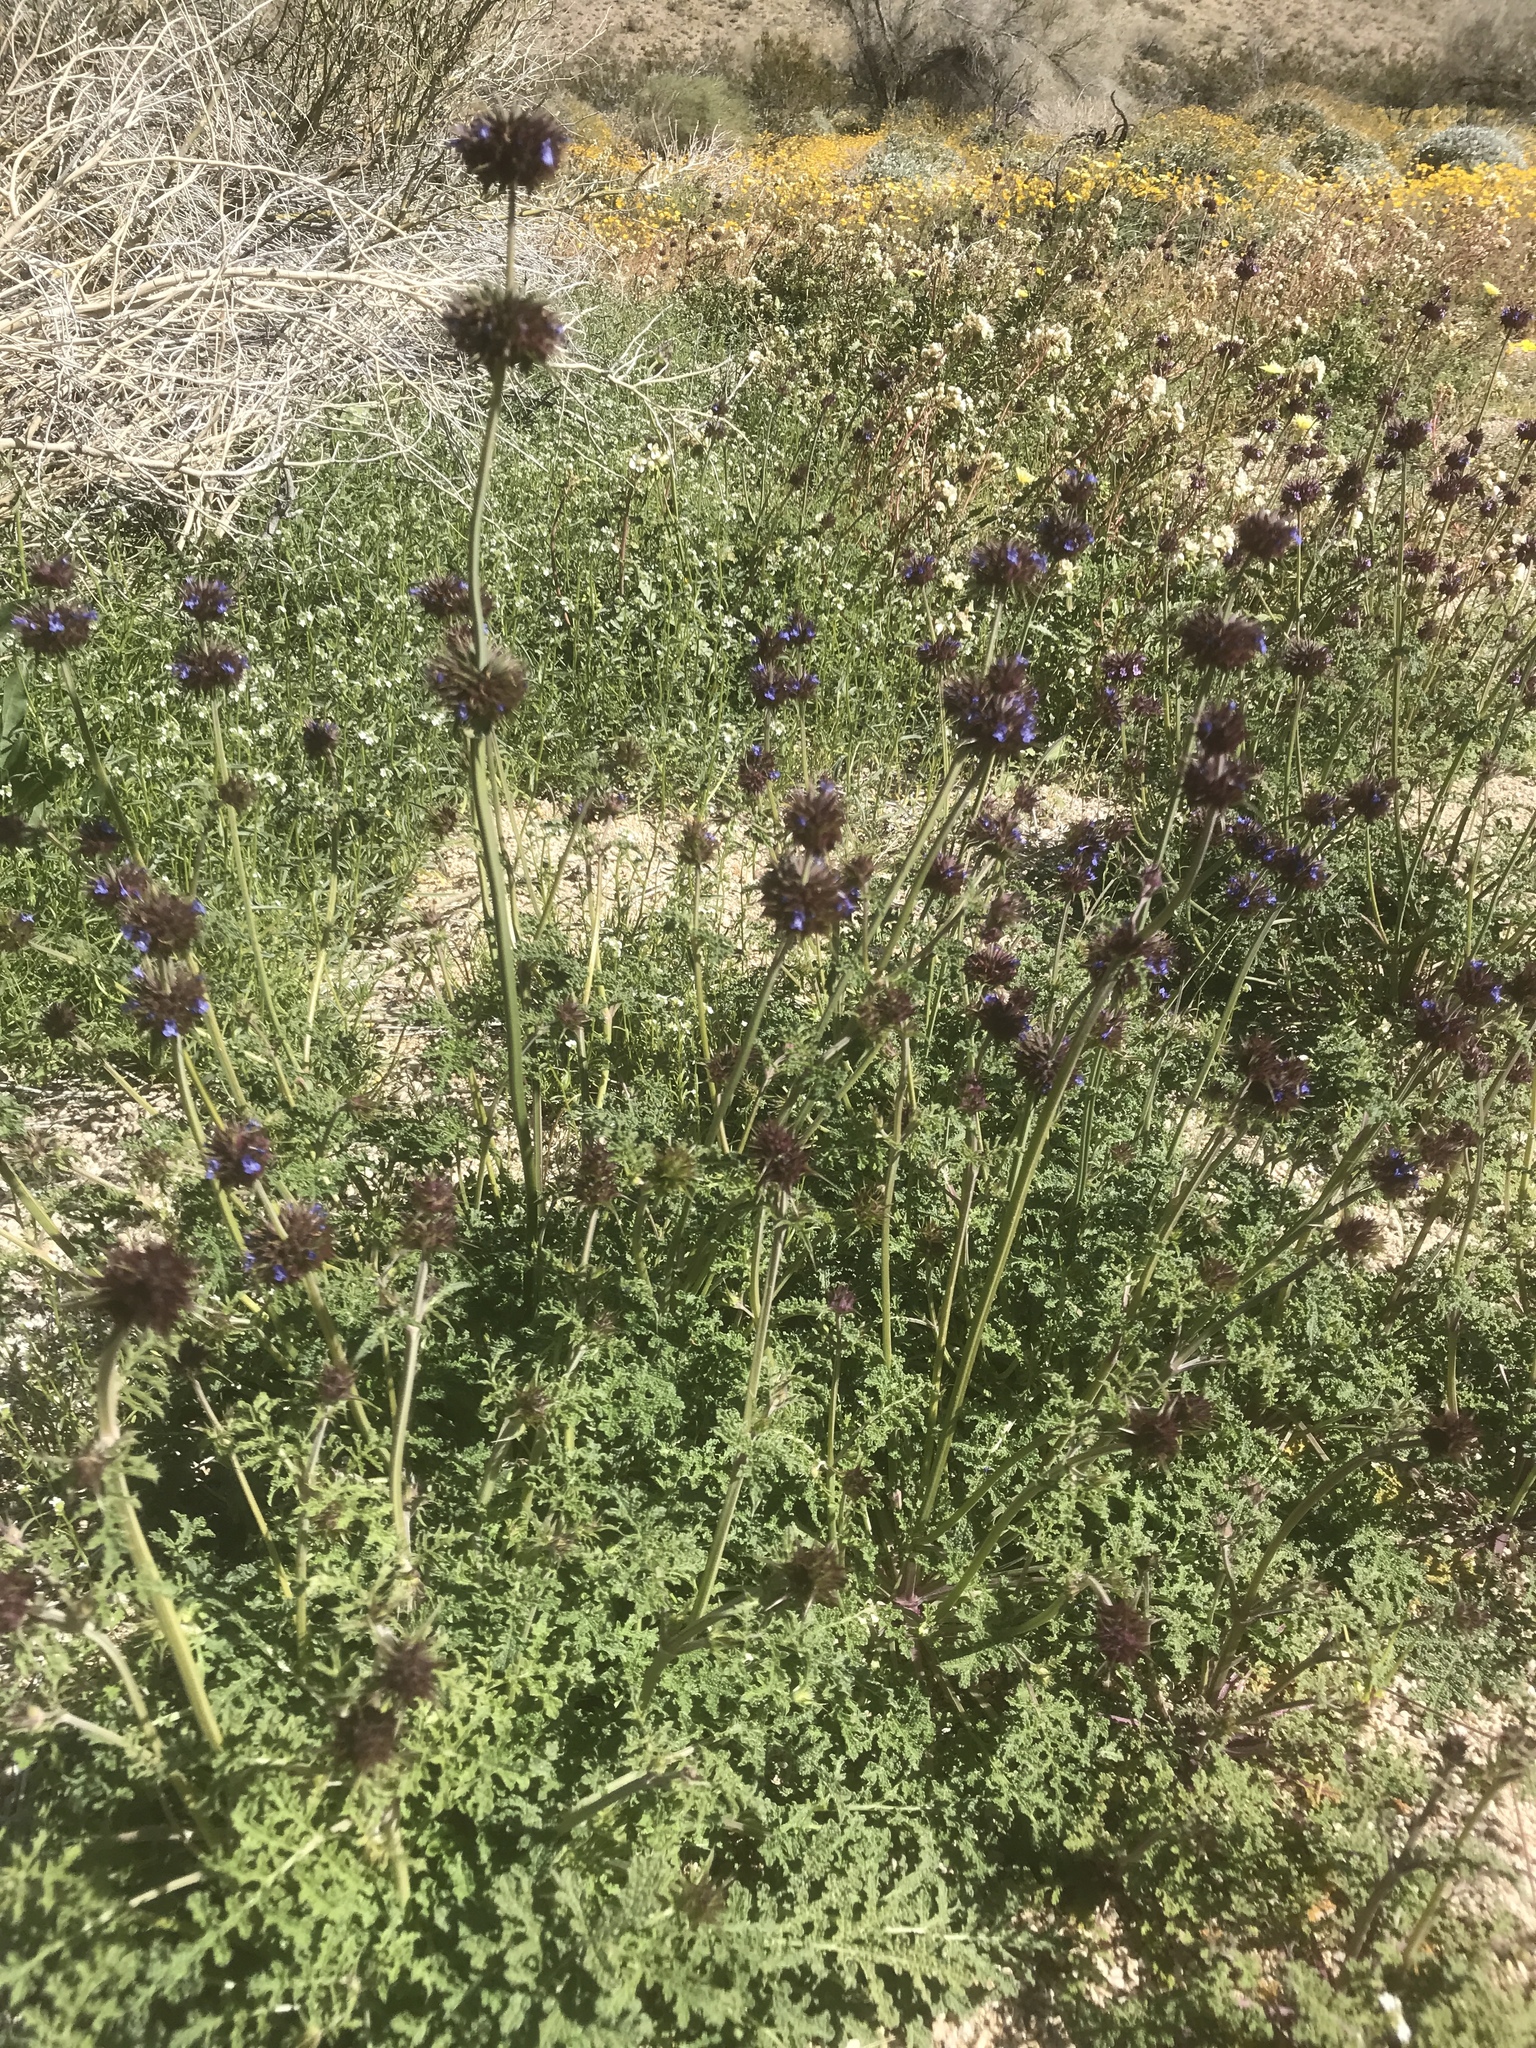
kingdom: Plantae
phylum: Tracheophyta
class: Magnoliopsida
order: Lamiales
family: Lamiaceae
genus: Salvia
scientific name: Salvia columbariae
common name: Chia
